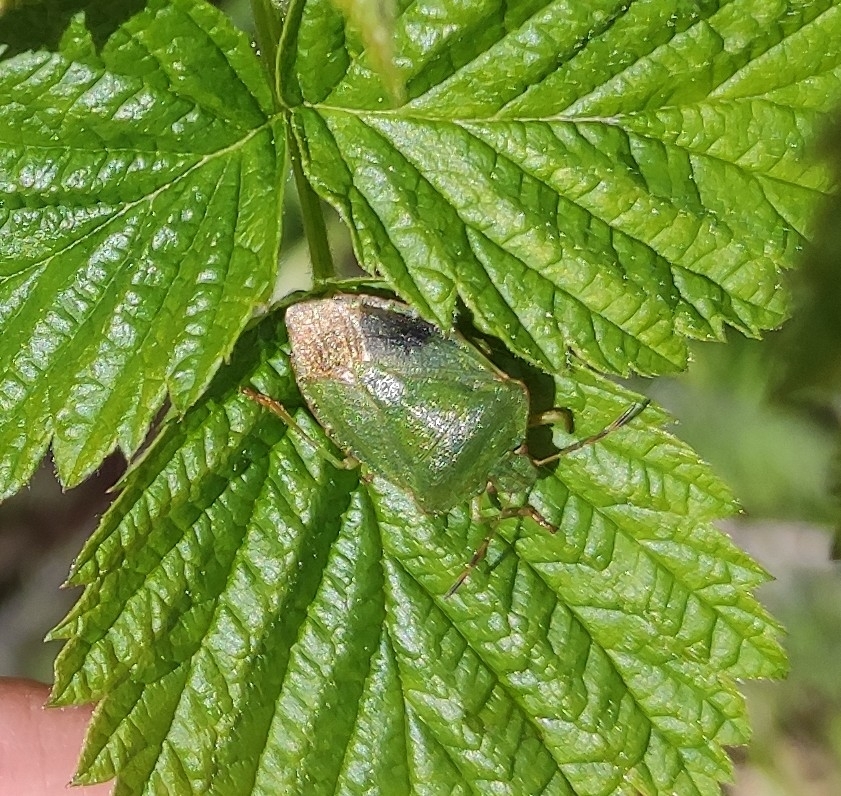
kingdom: Animalia
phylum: Arthropoda
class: Insecta
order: Hemiptera
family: Pentatomidae
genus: Palomena
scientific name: Palomena prasina
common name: Green shieldbug
